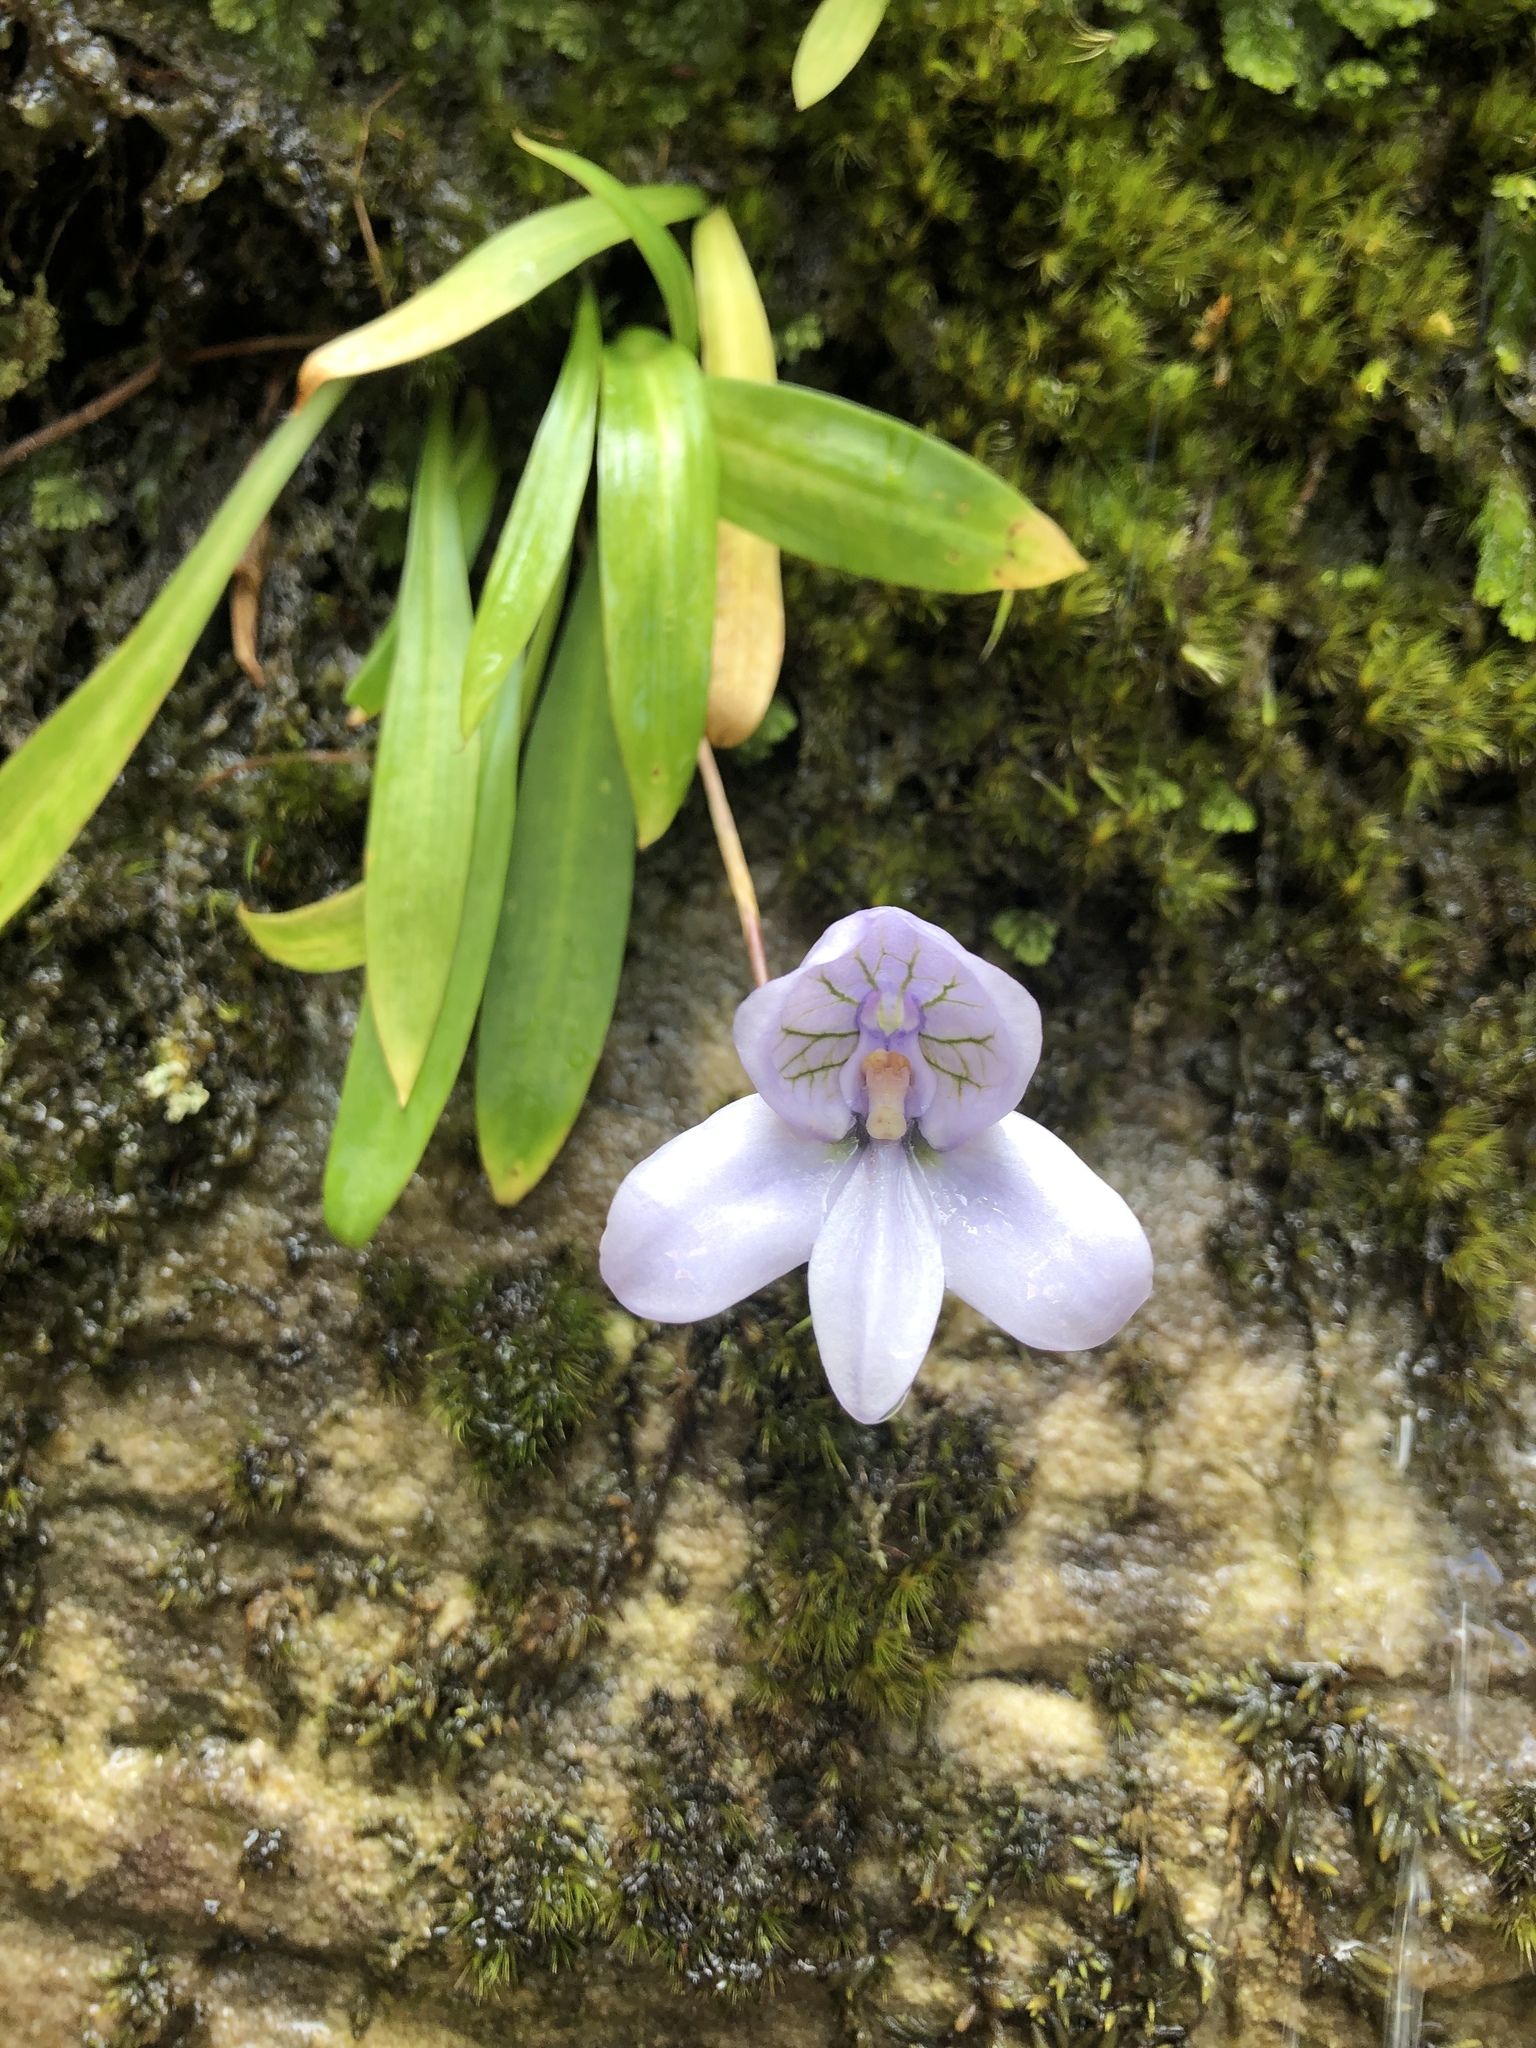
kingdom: Plantae
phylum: Tracheophyta
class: Liliopsida
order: Asparagales
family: Orchidaceae
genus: Disa
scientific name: Disa longicornu
